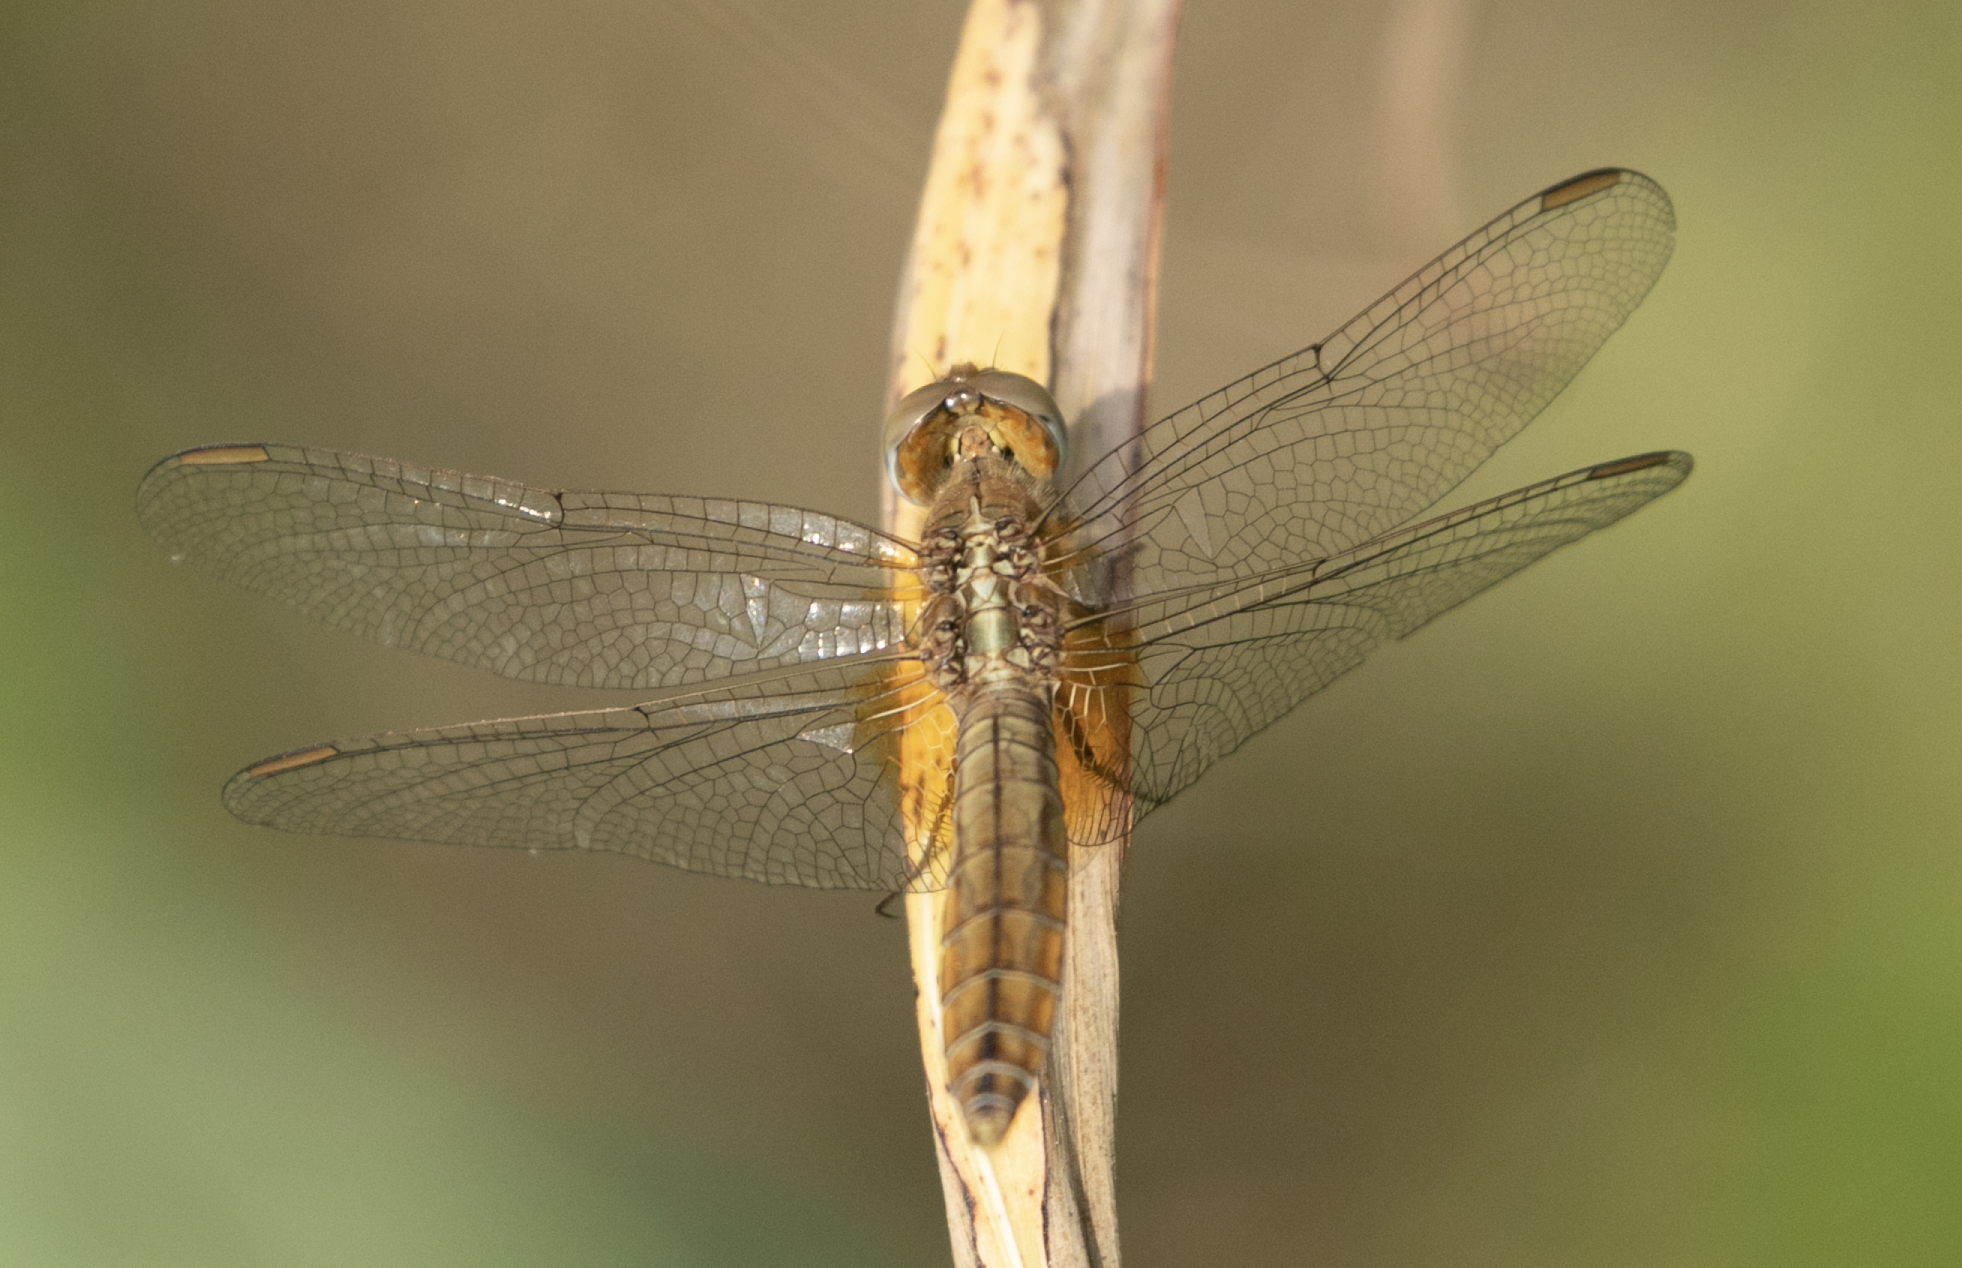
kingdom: Animalia
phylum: Arthropoda
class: Insecta
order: Odonata
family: Libellulidae
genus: Crocothemis
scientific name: Crocothemis erythraea
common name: Scarlet dragonfly
